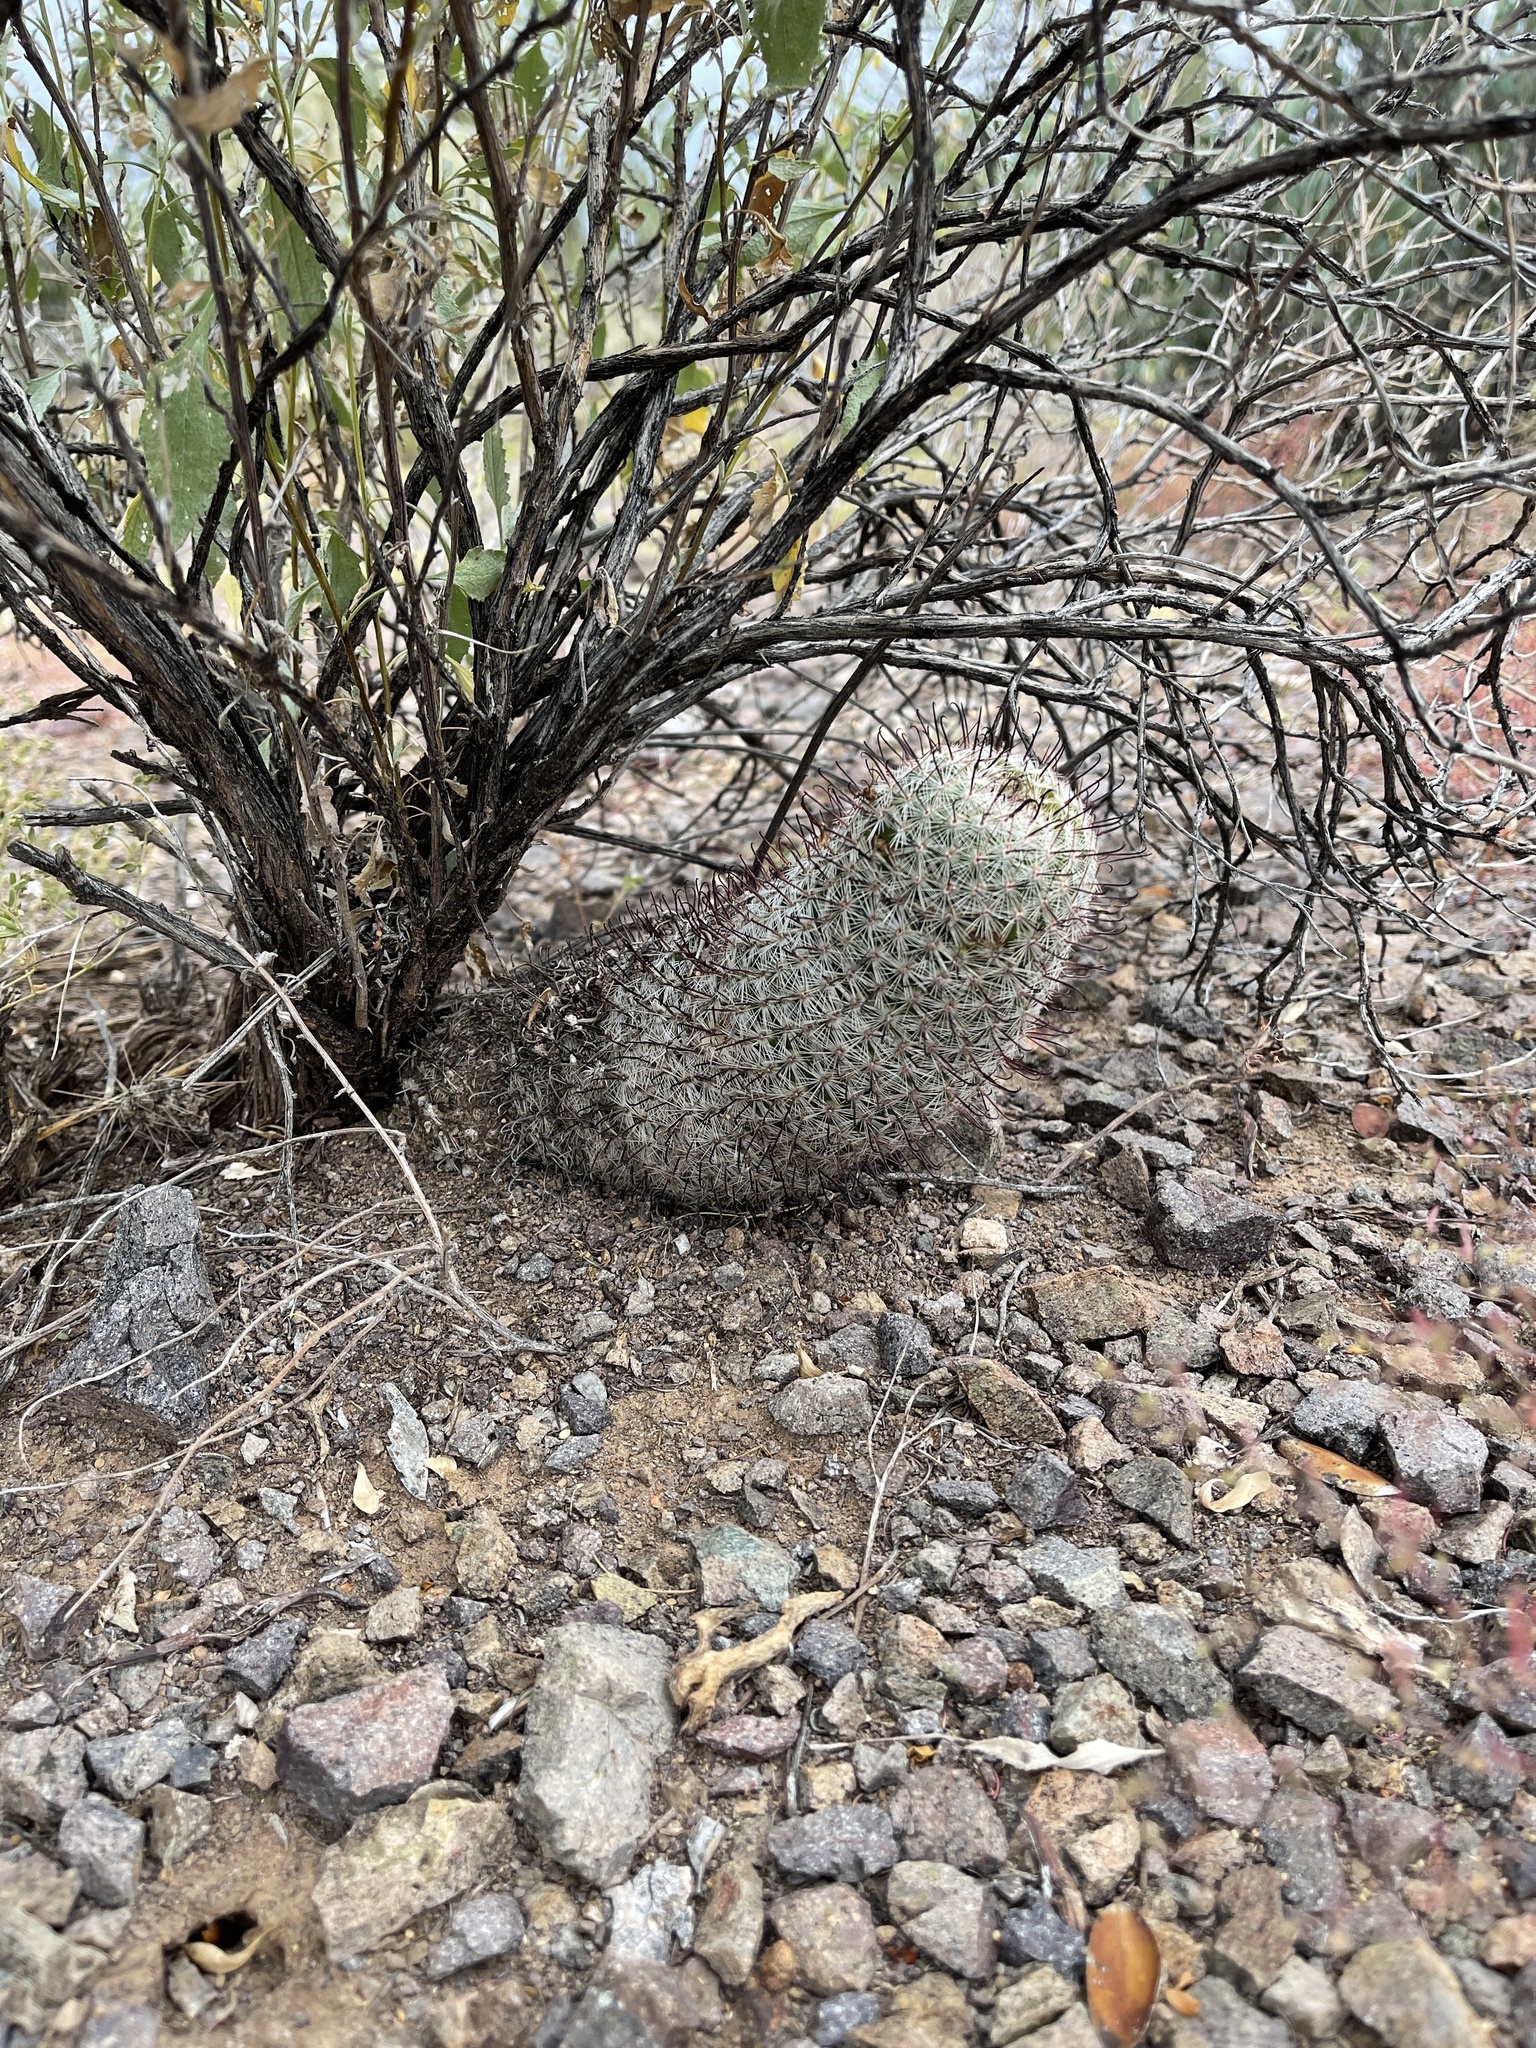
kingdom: Plantae
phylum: Tracheophyta
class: Magnoliopsida
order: Caryophyllales
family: Cactaceae
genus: Cochemiea
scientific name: Cochemiea grahamii
